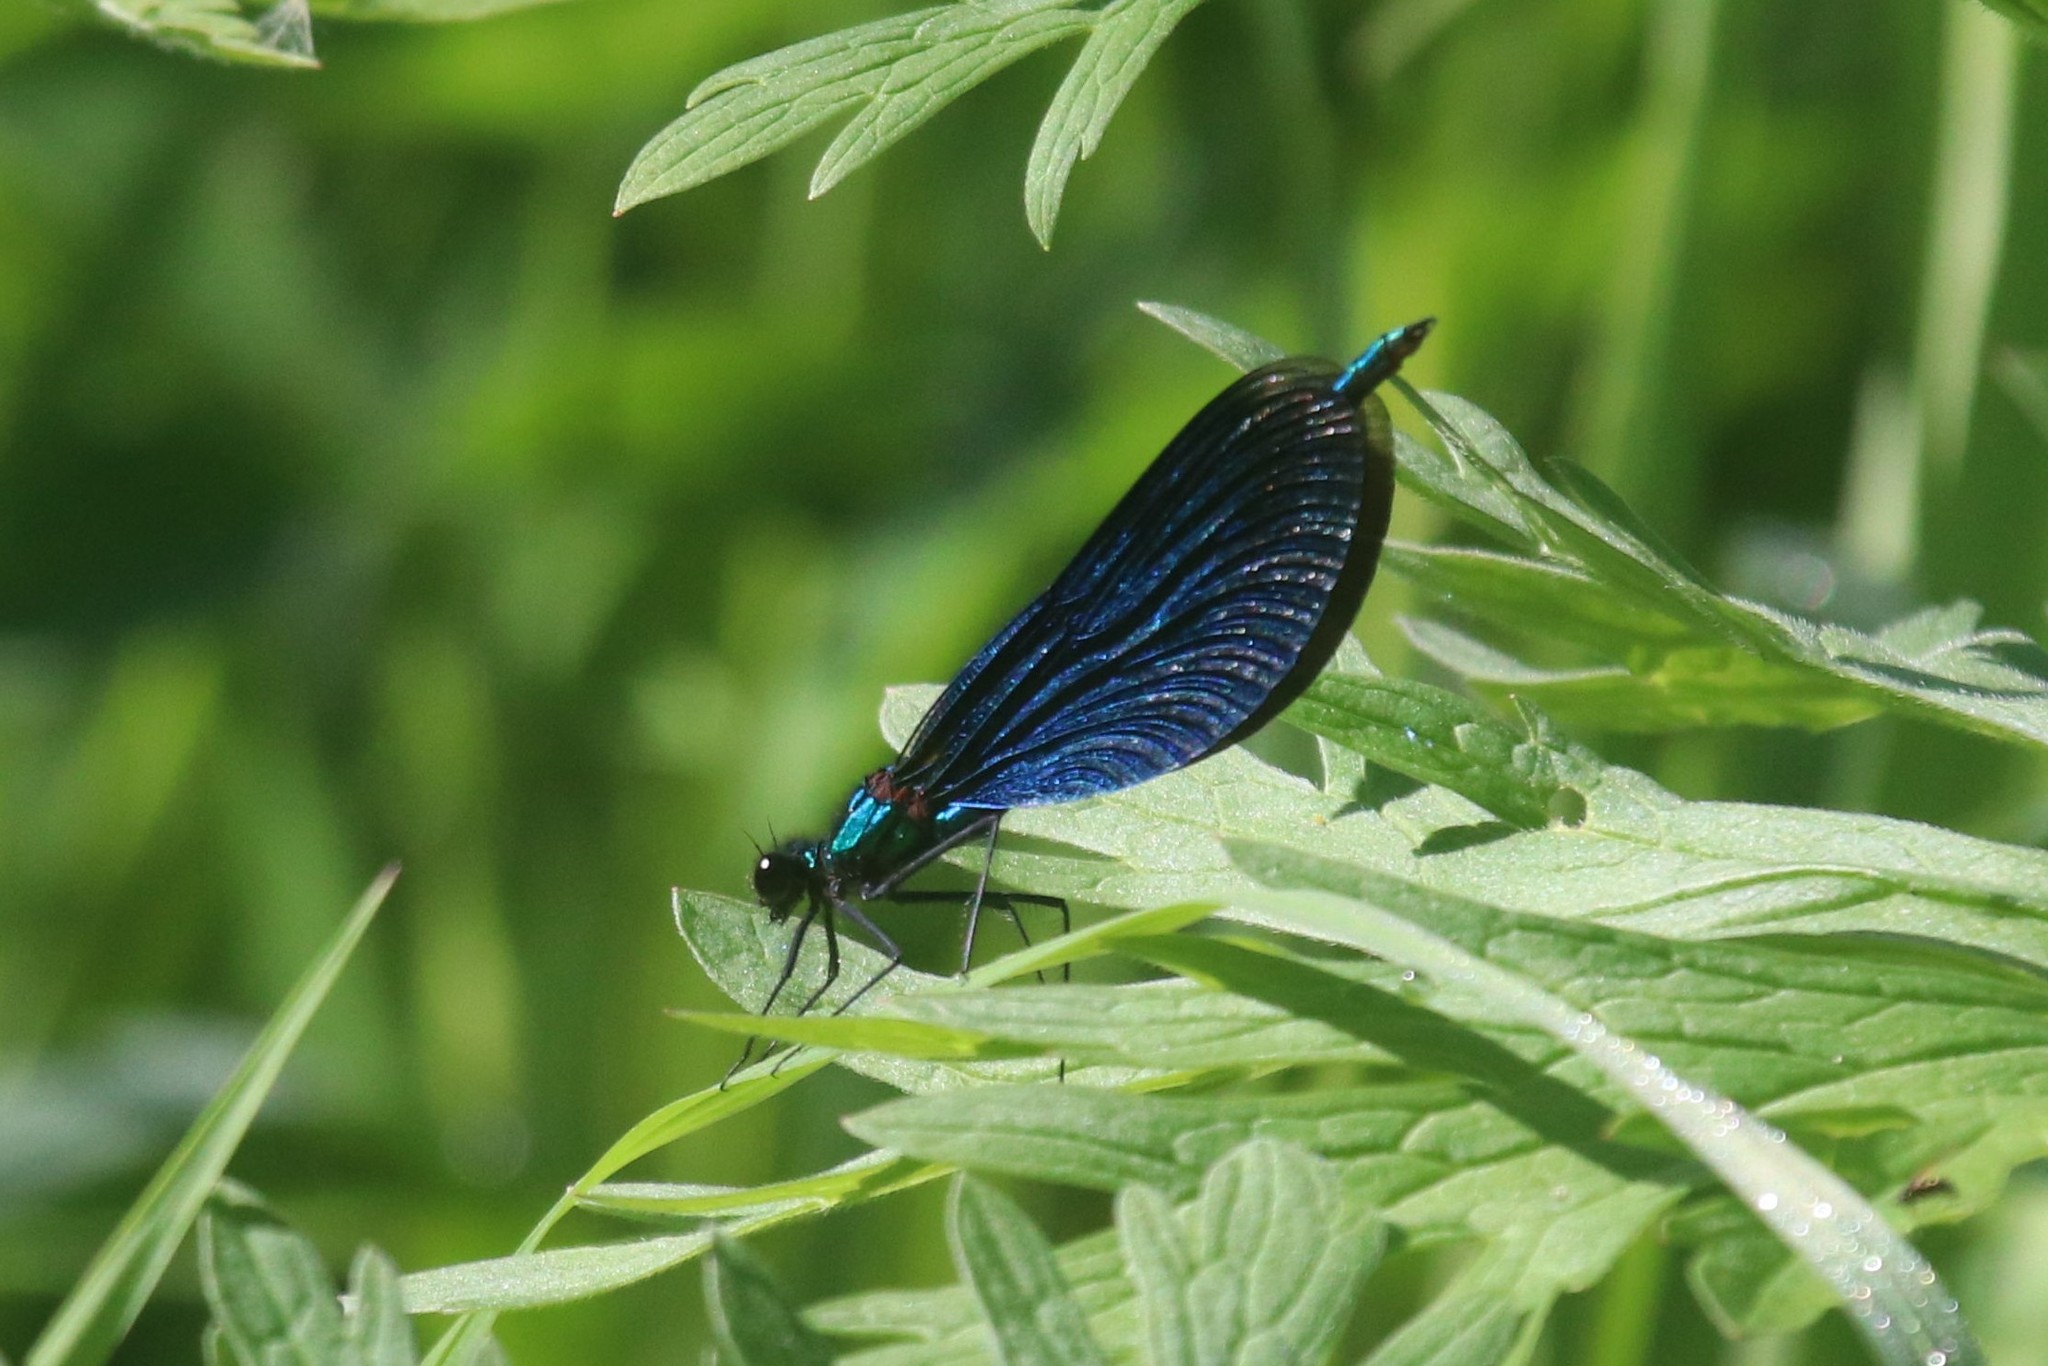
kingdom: Animalia
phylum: Arthropoda
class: Insecta
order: Odonata
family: Calopterygidae
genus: Calopteryx
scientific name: Calopteryx virgo
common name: Beautiful demoiselle
